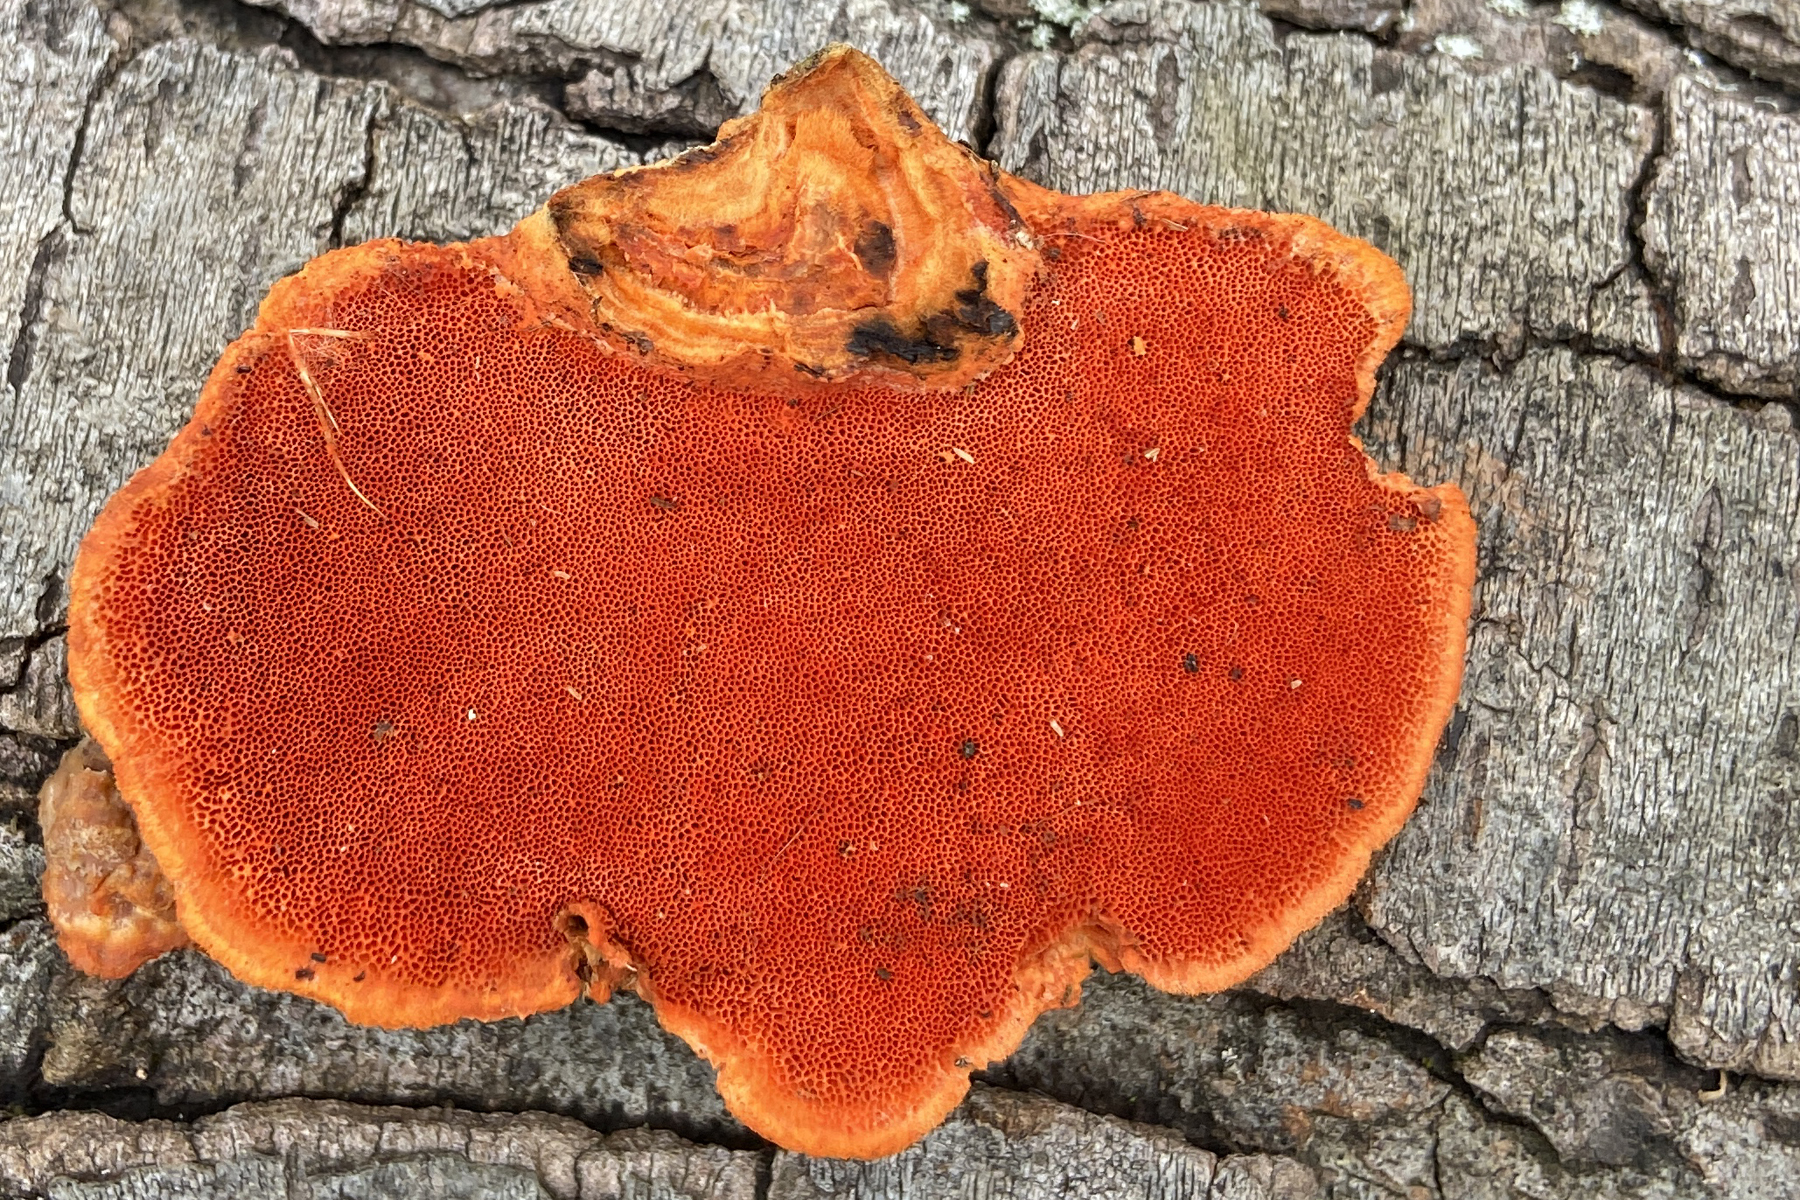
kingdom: Fungi
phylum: Basidiomycota
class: Agaricomycetes
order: Polyporales
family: Polyporaceae
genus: Trametes
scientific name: Trametes cinnabarina
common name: Northern cinnabar polypore
